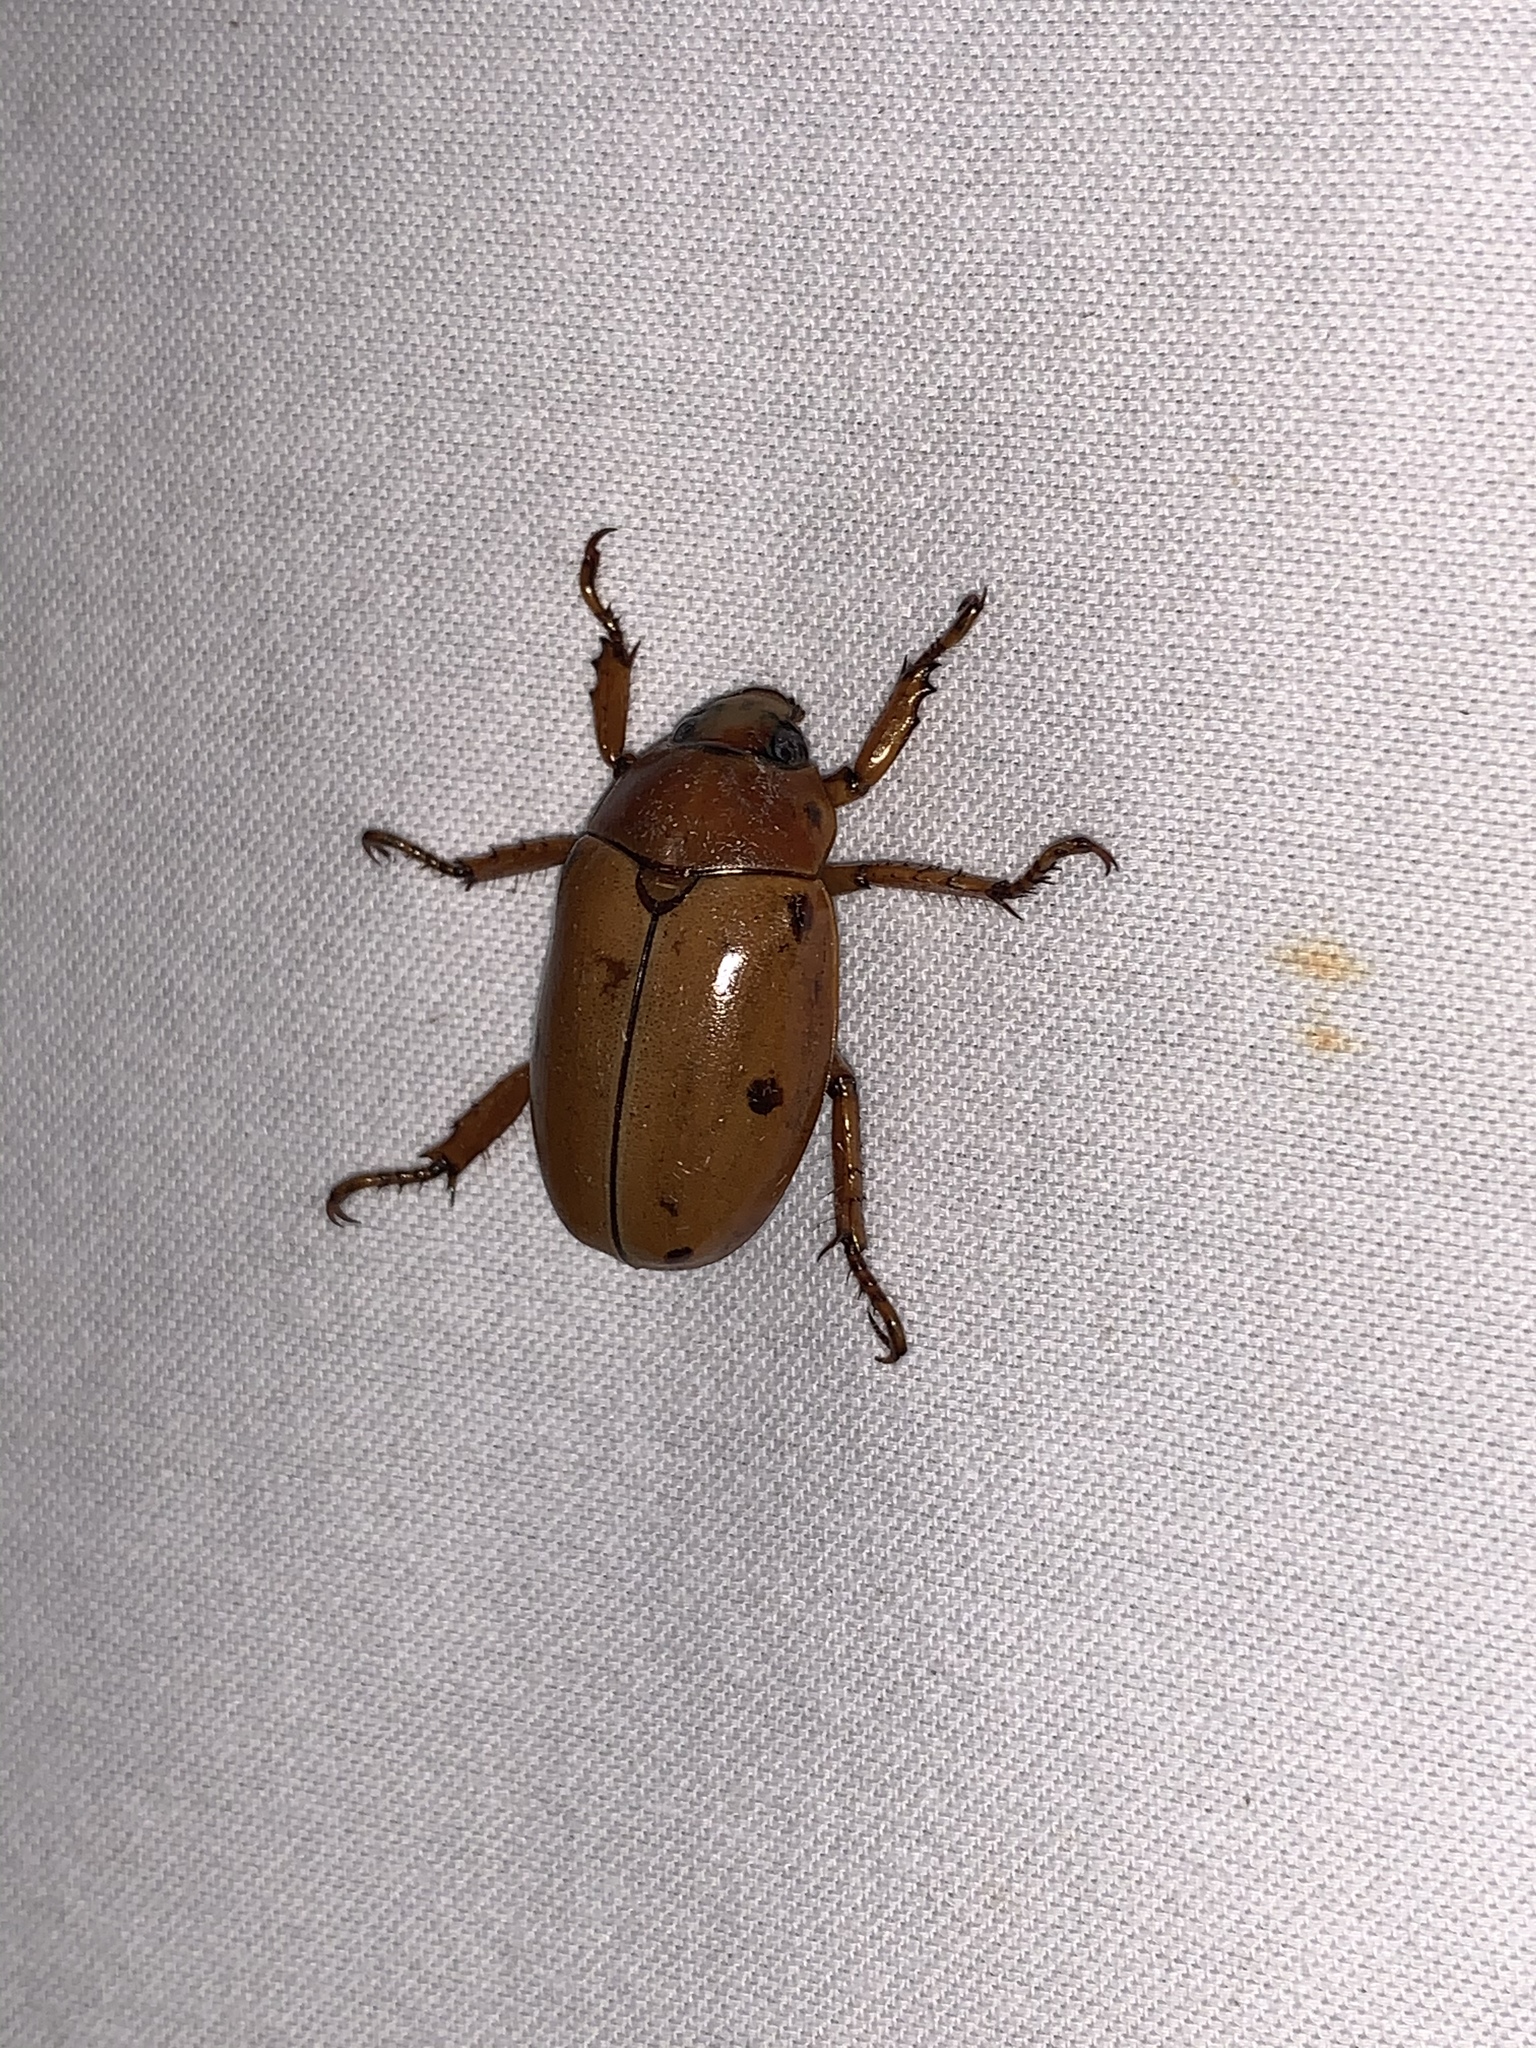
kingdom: Animalia
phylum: Arthropoda
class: Insecta
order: Coleoptera
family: Scarabaeidae
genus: Pelidnota
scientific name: Pelidnota punctata
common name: Grapevine beetle
